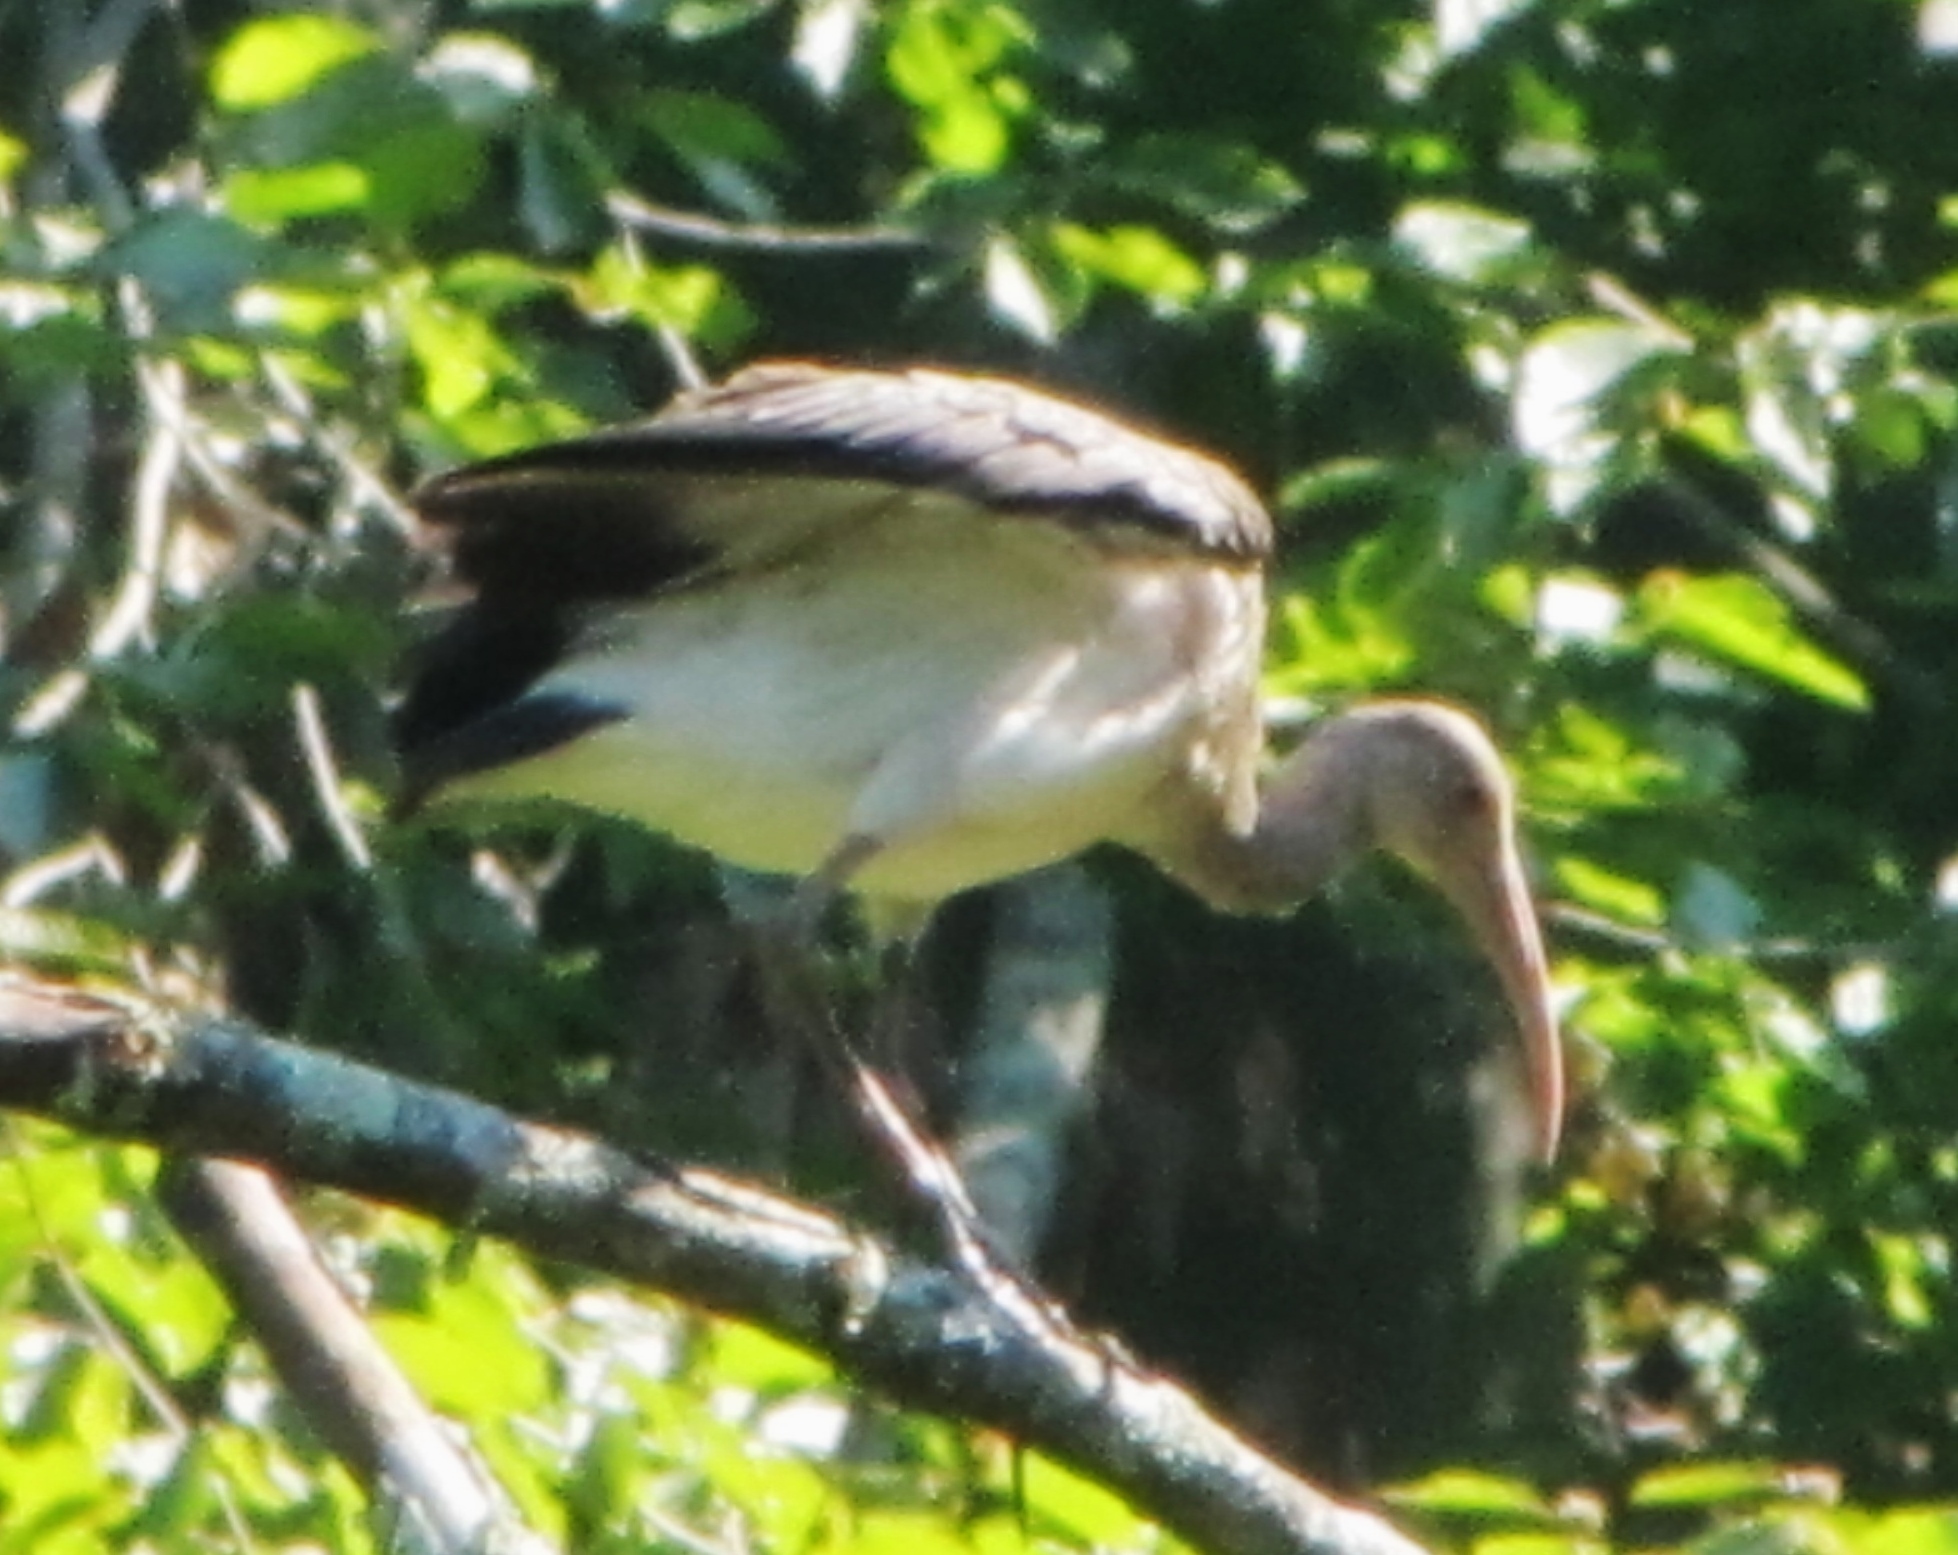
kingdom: Animalia
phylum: Chordata
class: Aves
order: Pelecaniformes
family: Threskiornithidae
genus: Eudocimus
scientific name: Eudocimus albus
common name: White ibis
